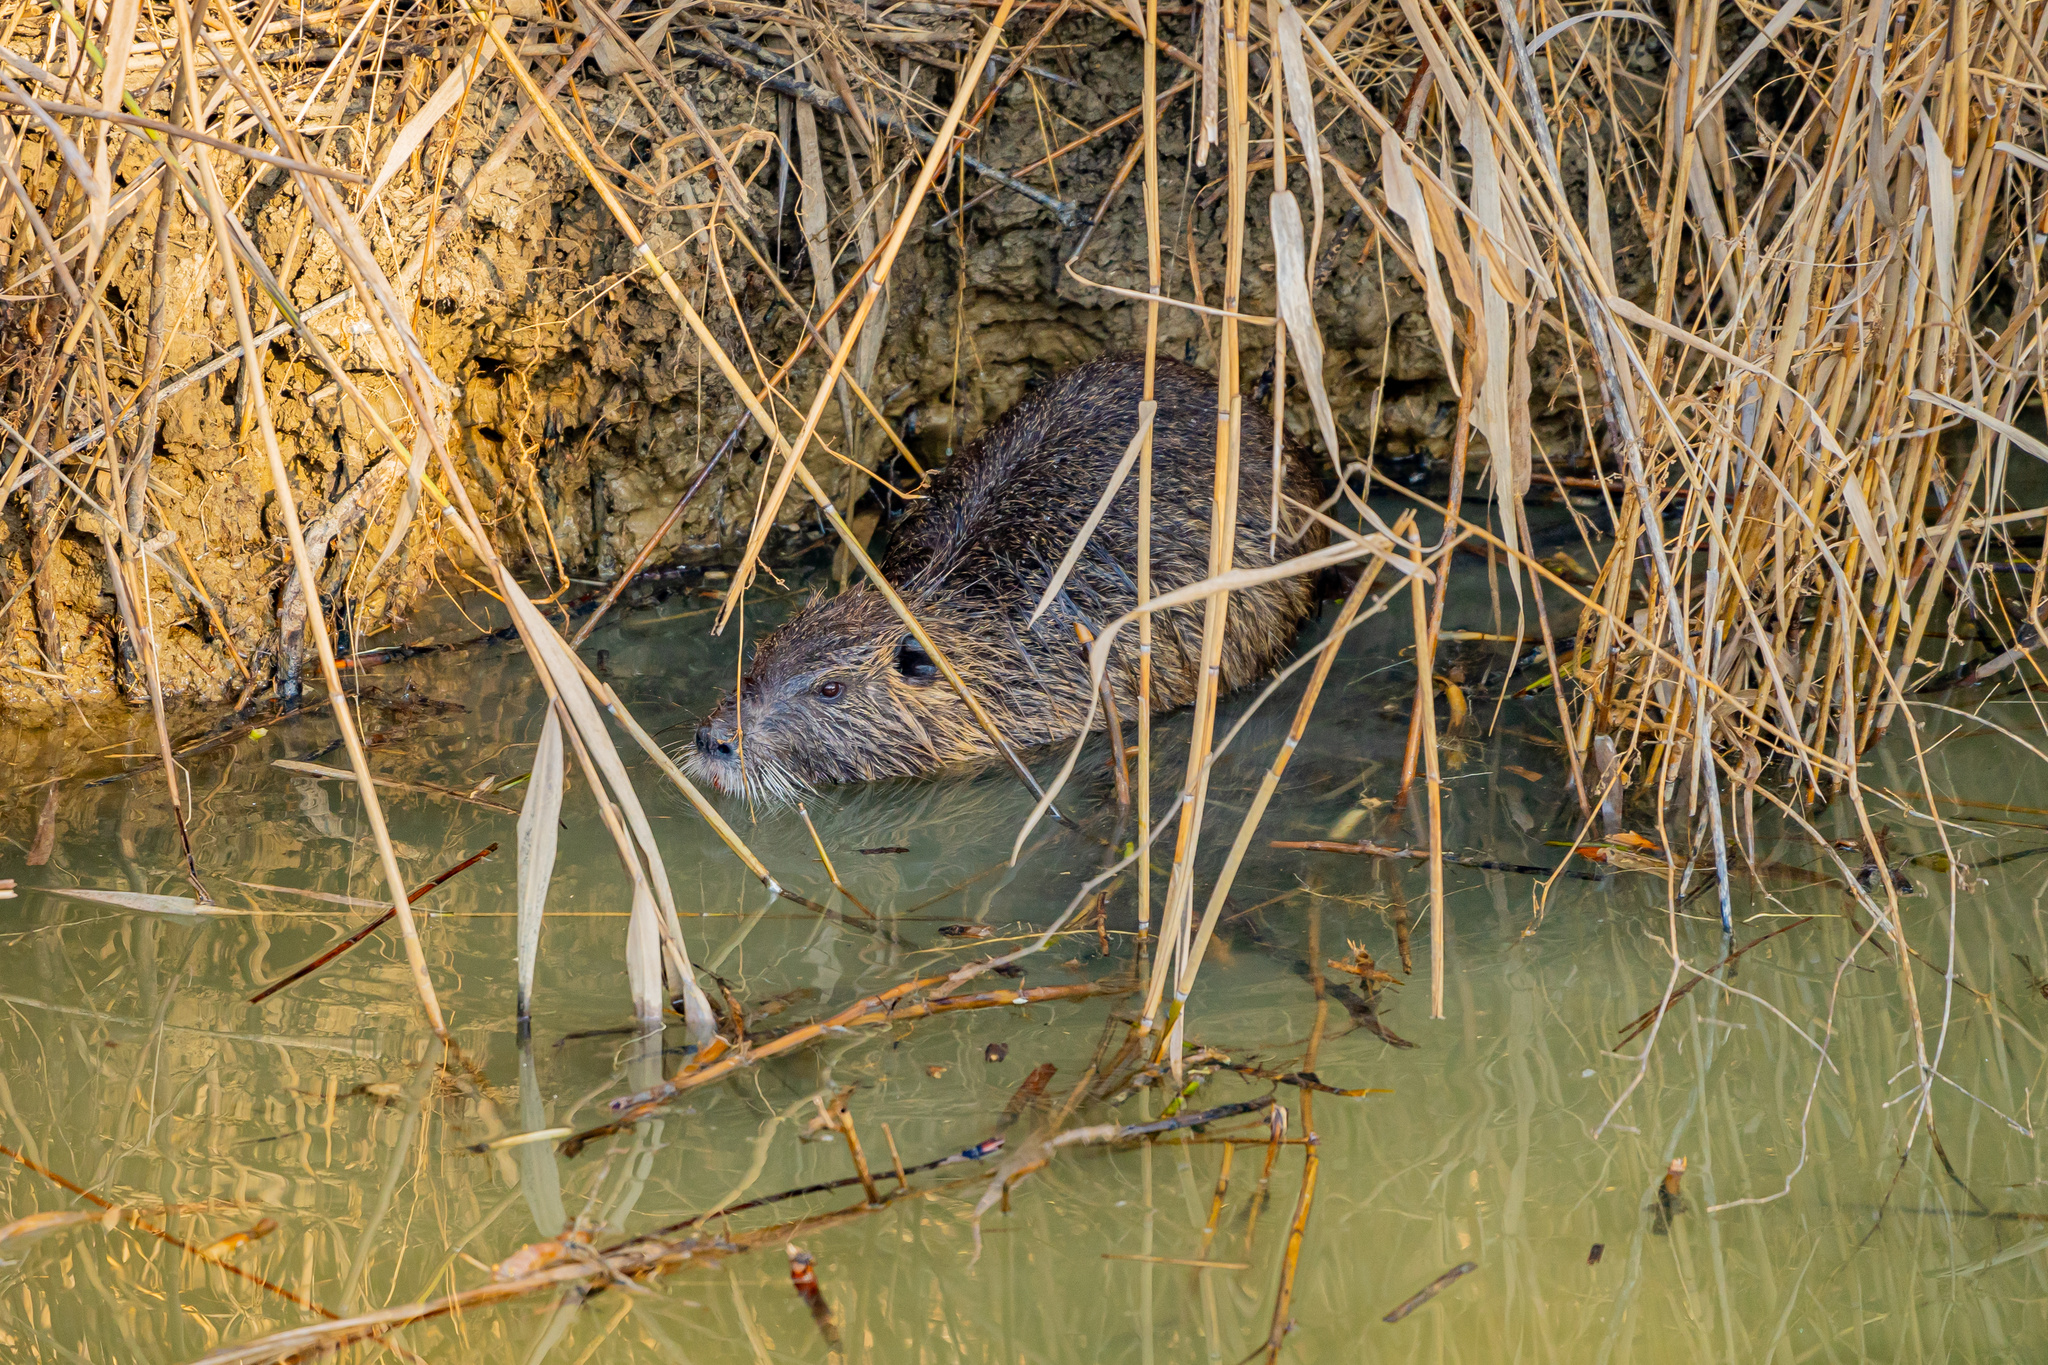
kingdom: Animalia
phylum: Chordata
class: Mammalia
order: Rodentia
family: Myocastoridae
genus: Myocastor
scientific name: Myocastor coypus
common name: Coypu
